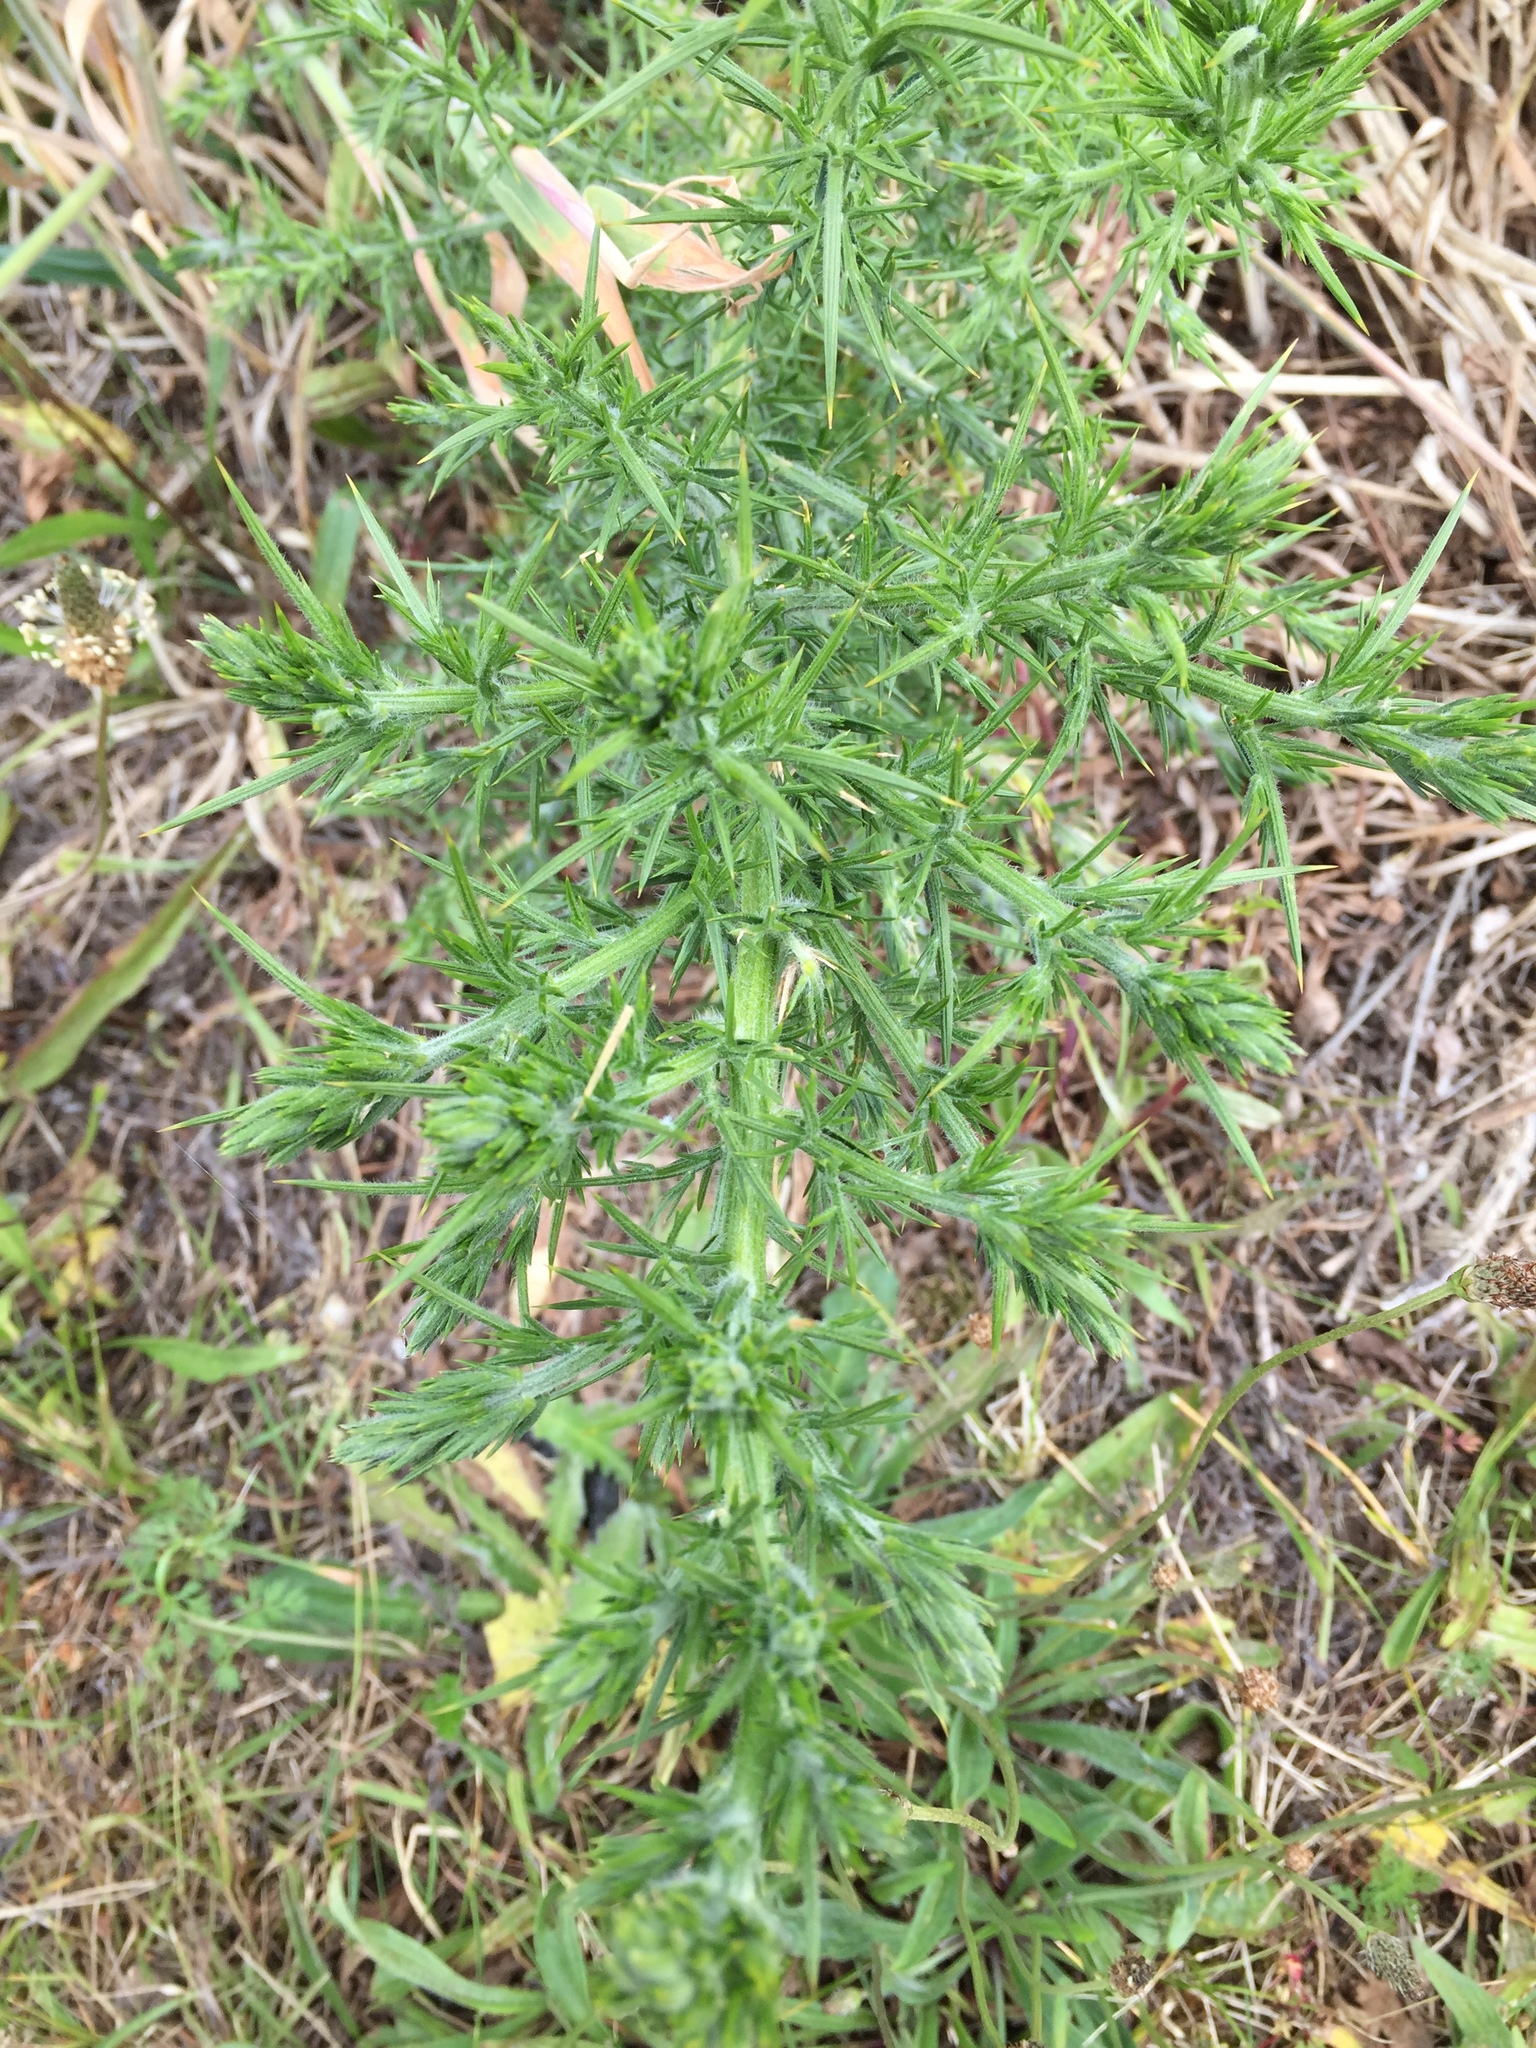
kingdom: Plantae
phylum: Tracheophyta
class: Magnoliopsida
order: Fabales
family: Fabaceae
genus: Ulex
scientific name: Ulex europaeus
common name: Common gorse
